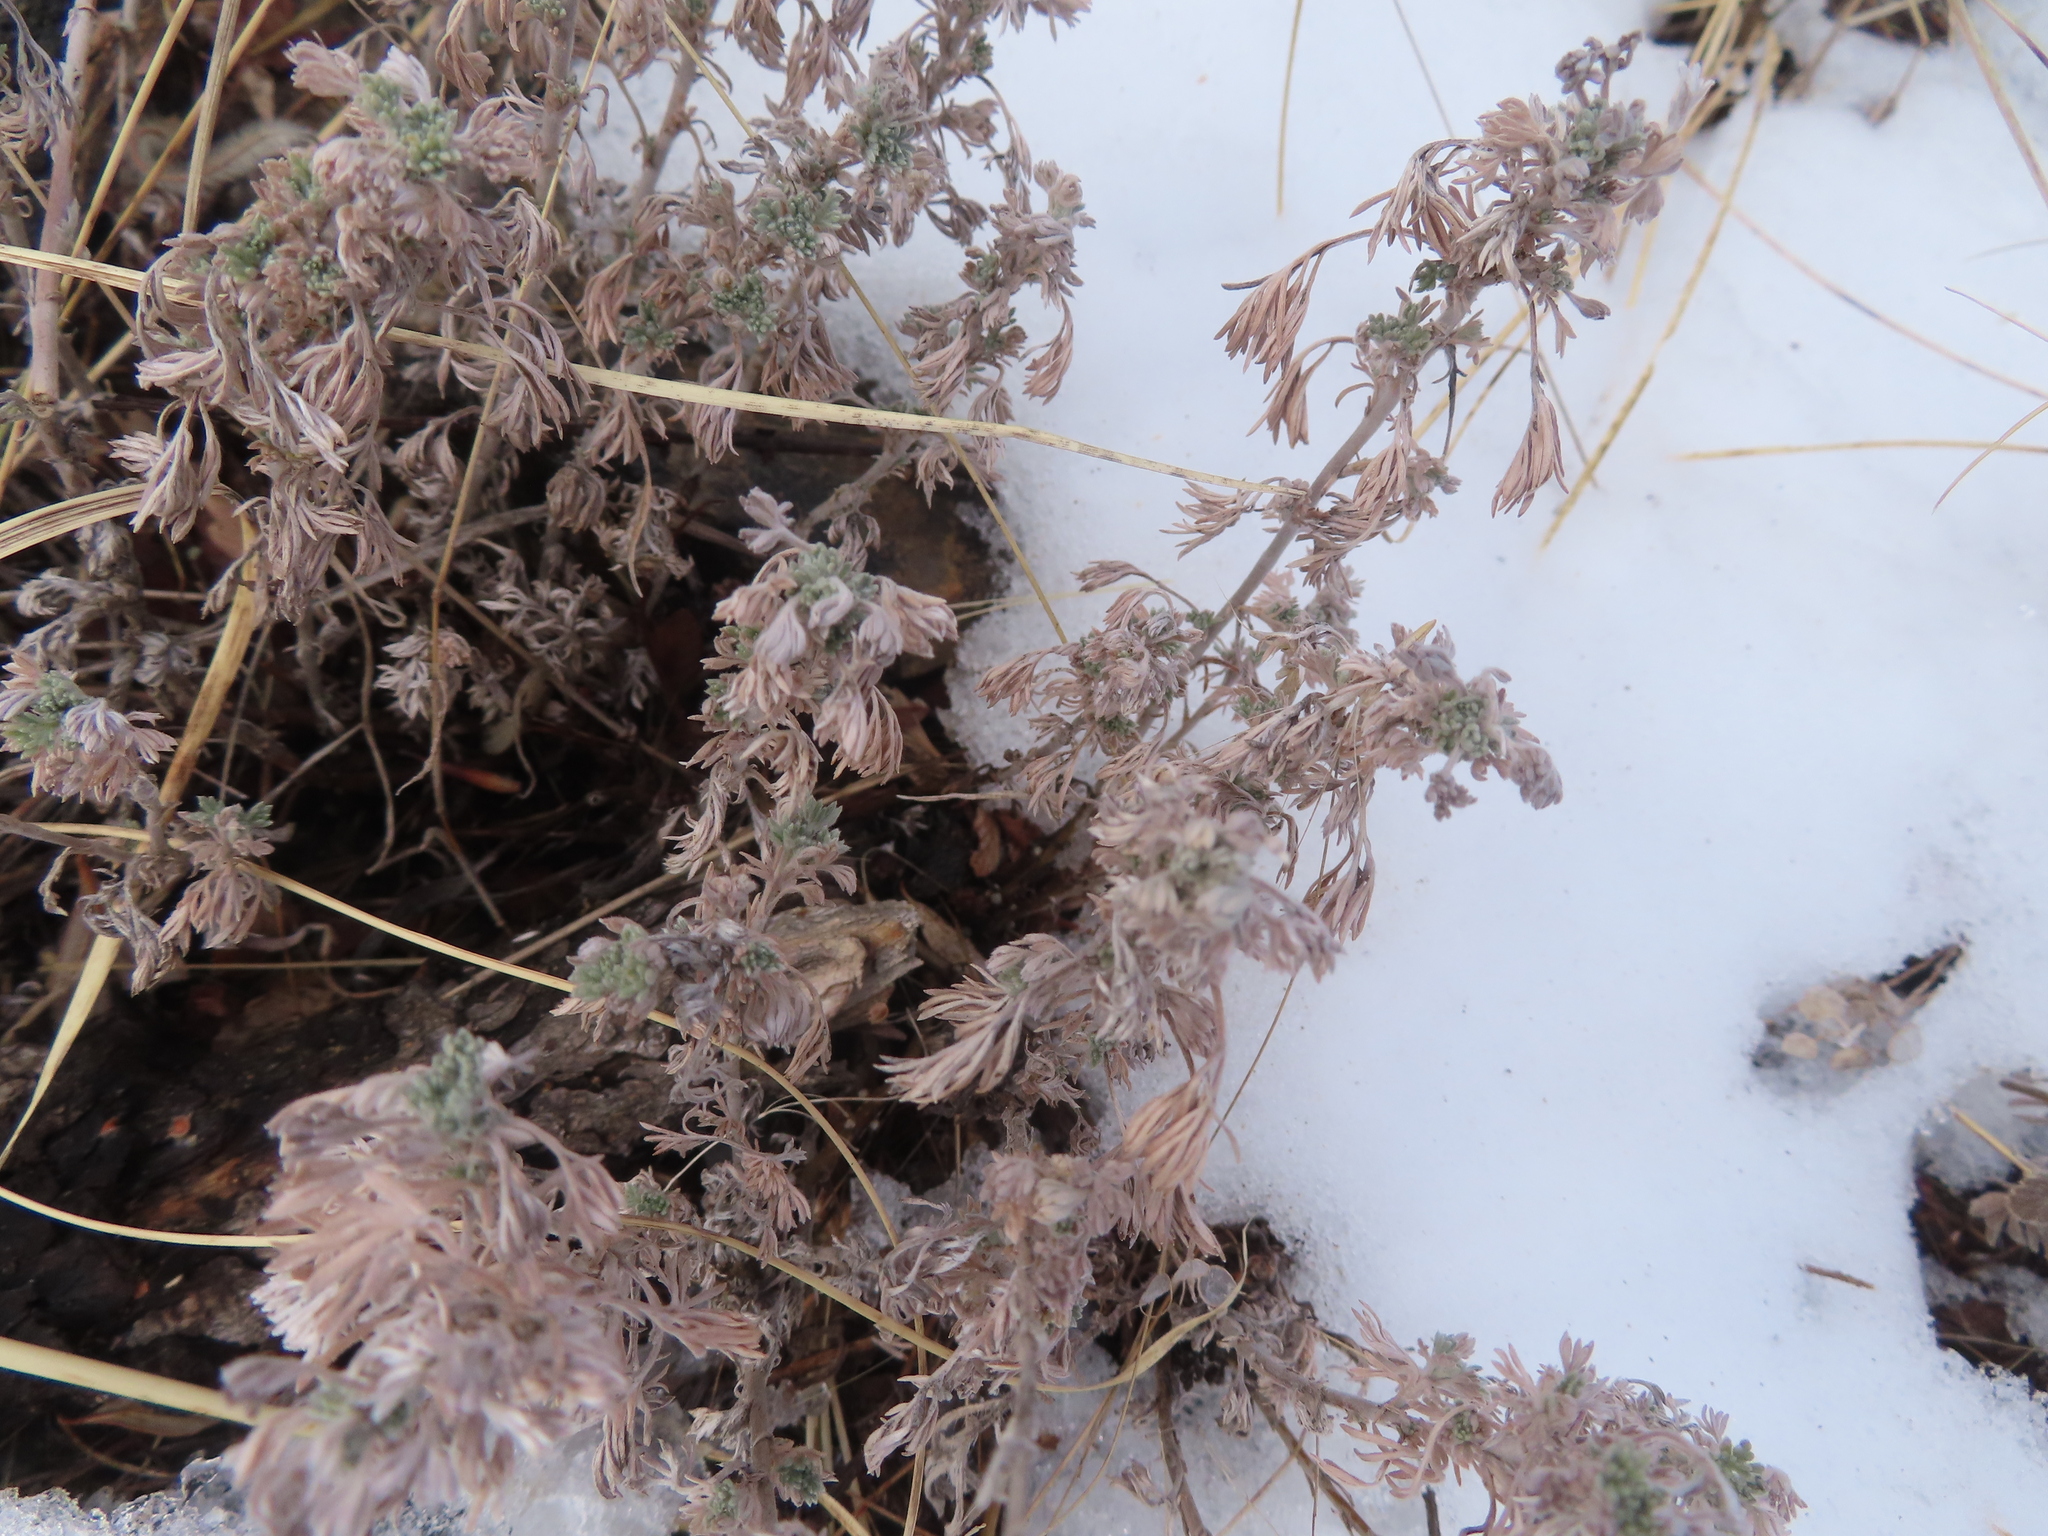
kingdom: Plantae
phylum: Tracheophyta
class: Magnoliopsida
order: Asterales
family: Asteraceae
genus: Artemisia
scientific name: Artemisia frigida
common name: Prairie sagewort
